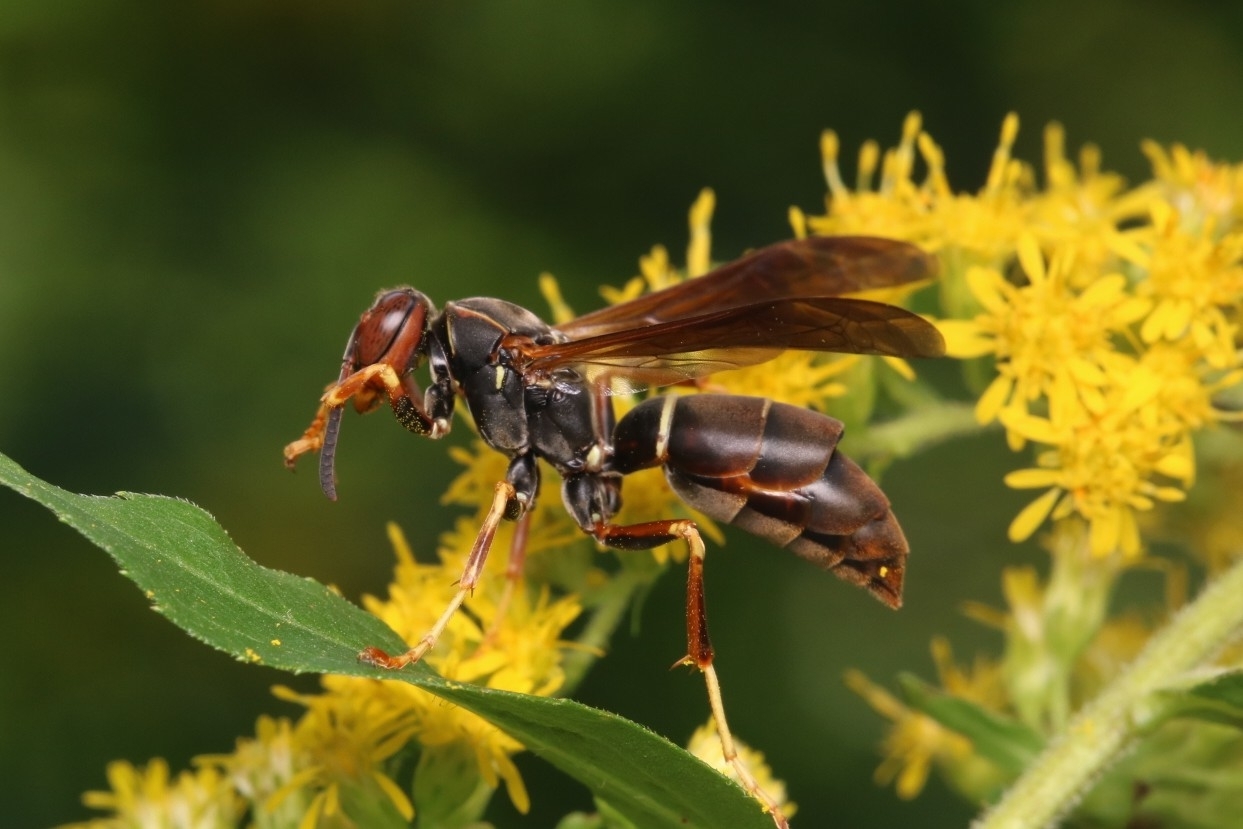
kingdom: Animalia
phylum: Arthropoda
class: Insecta
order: Strepsiptera
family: Xenidae
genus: Xenos
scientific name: Xenos pecki
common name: Twisted wing parasite
